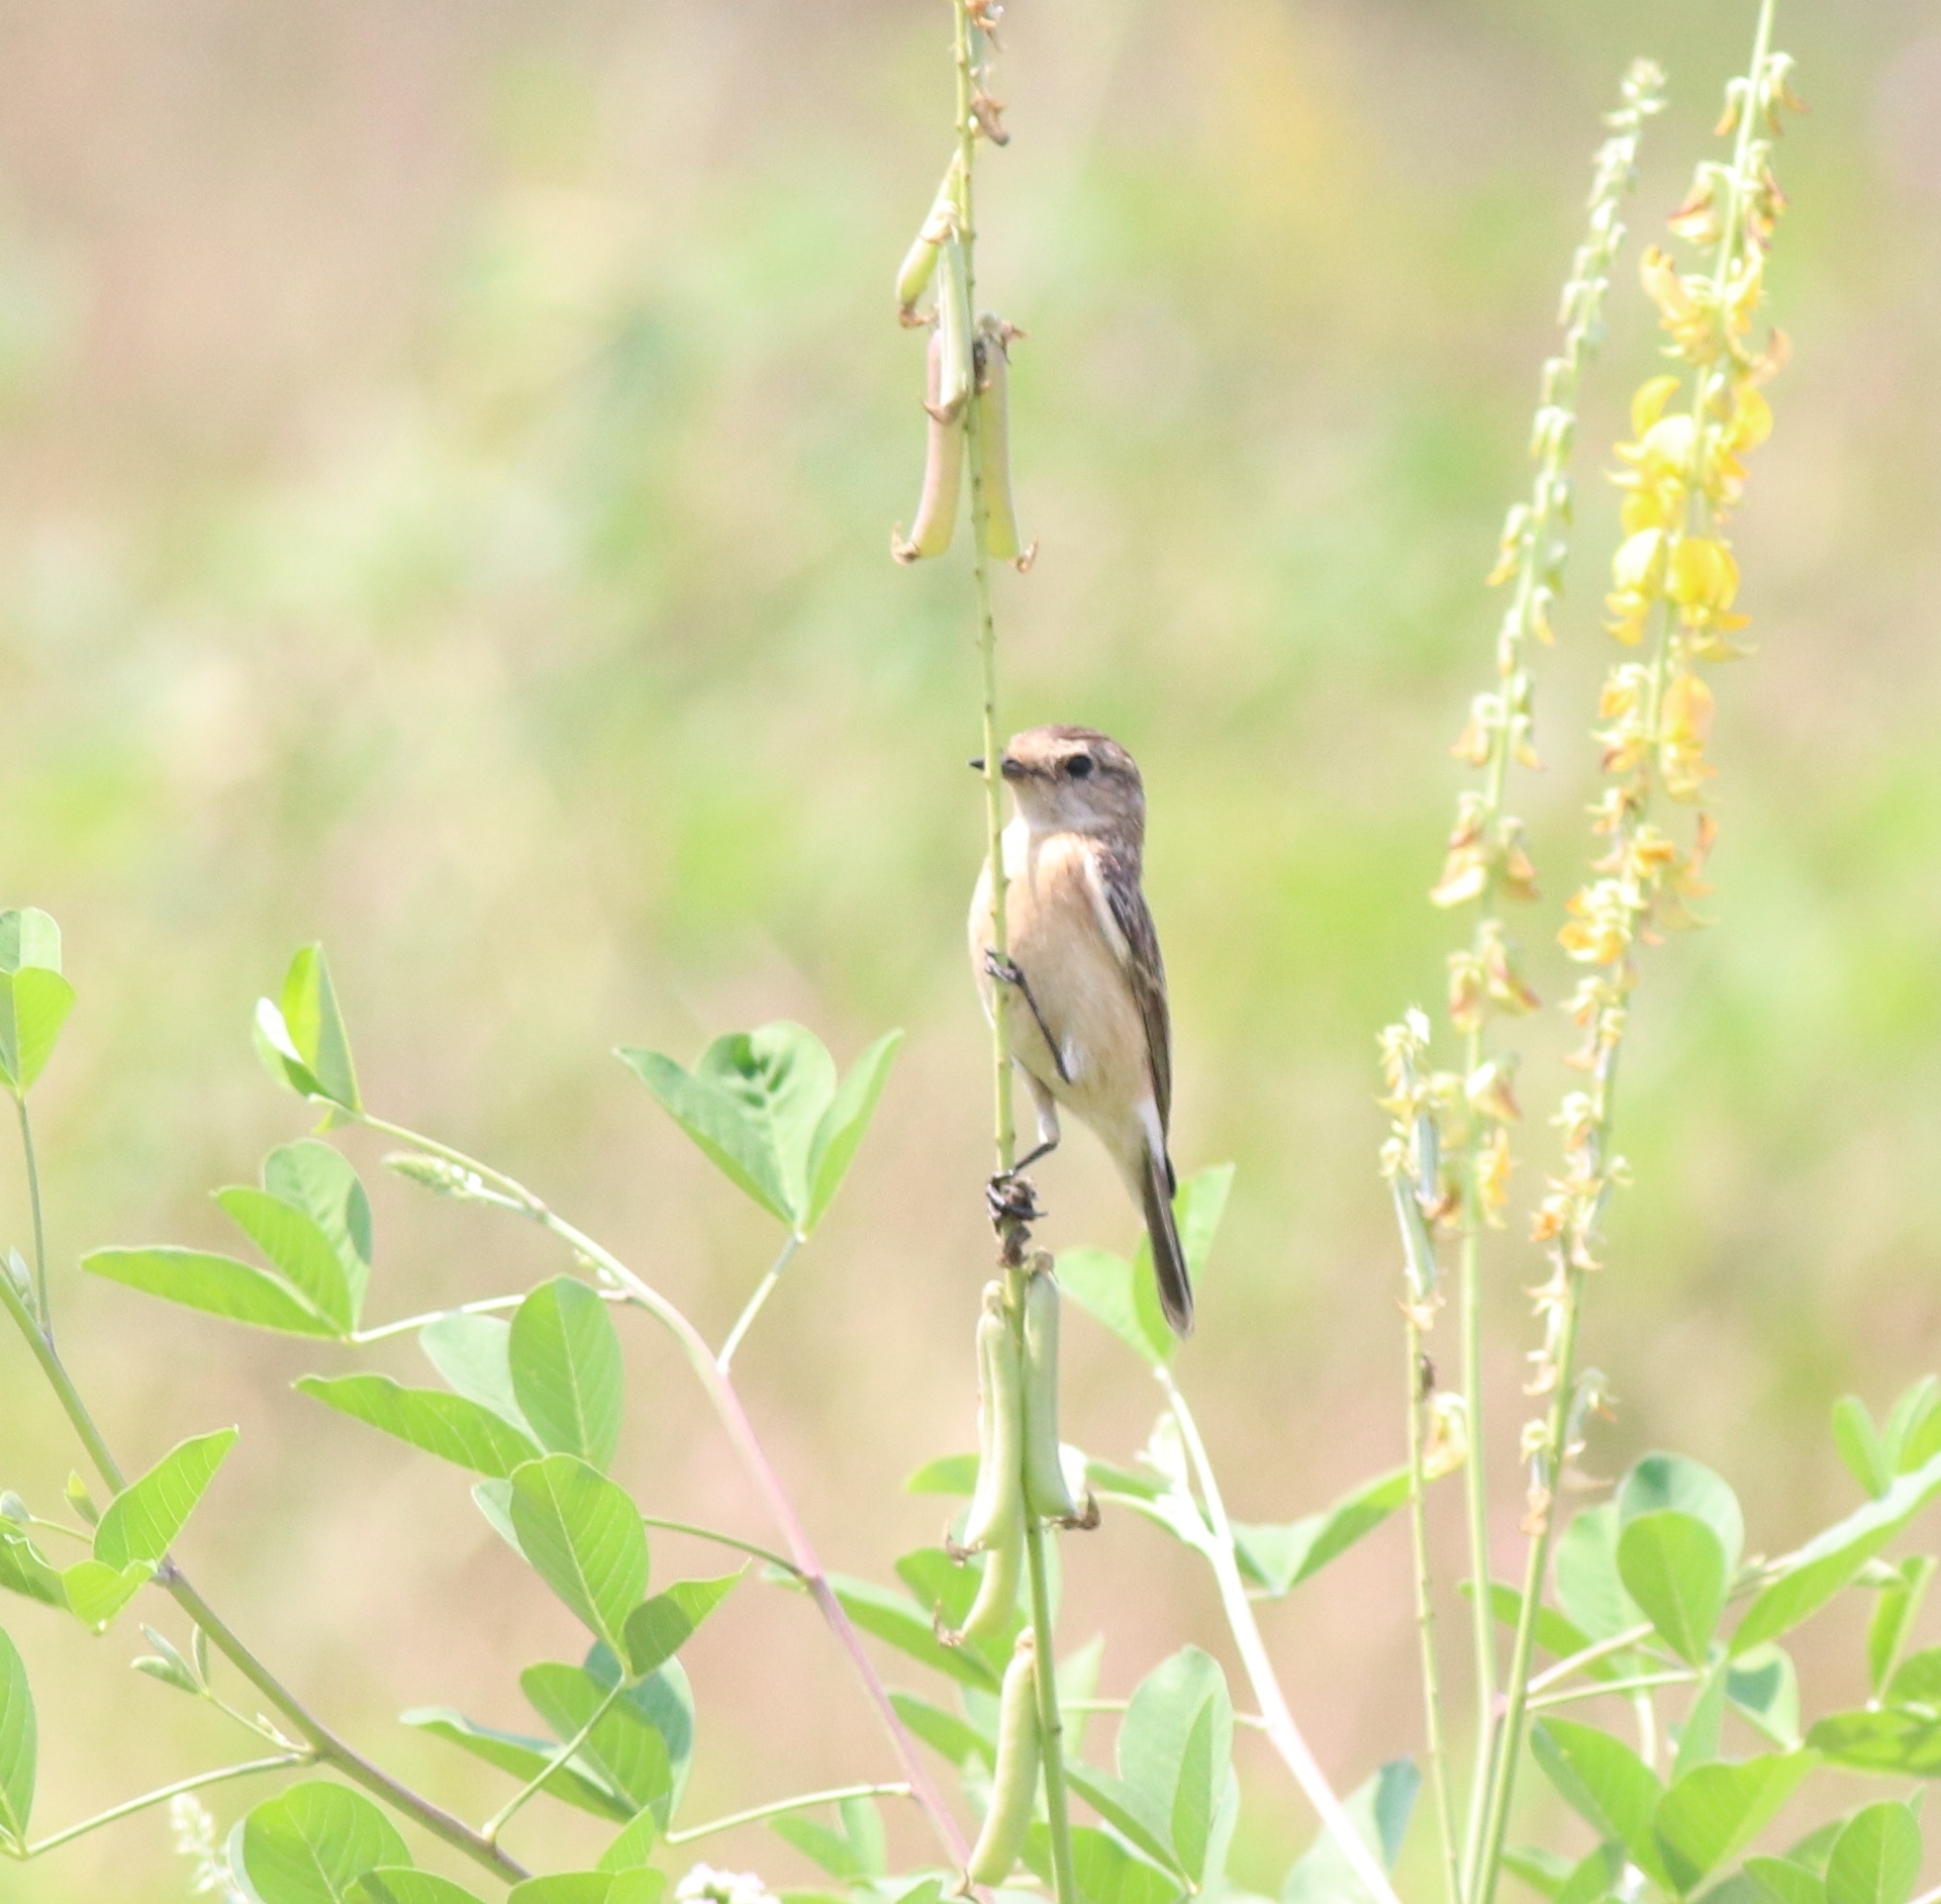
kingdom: Animalia
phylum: Chordata
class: Aves
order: Passeriformes
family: Muscicapidae
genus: Saxicola
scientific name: Saxicola maurus
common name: Siberian stonechat
